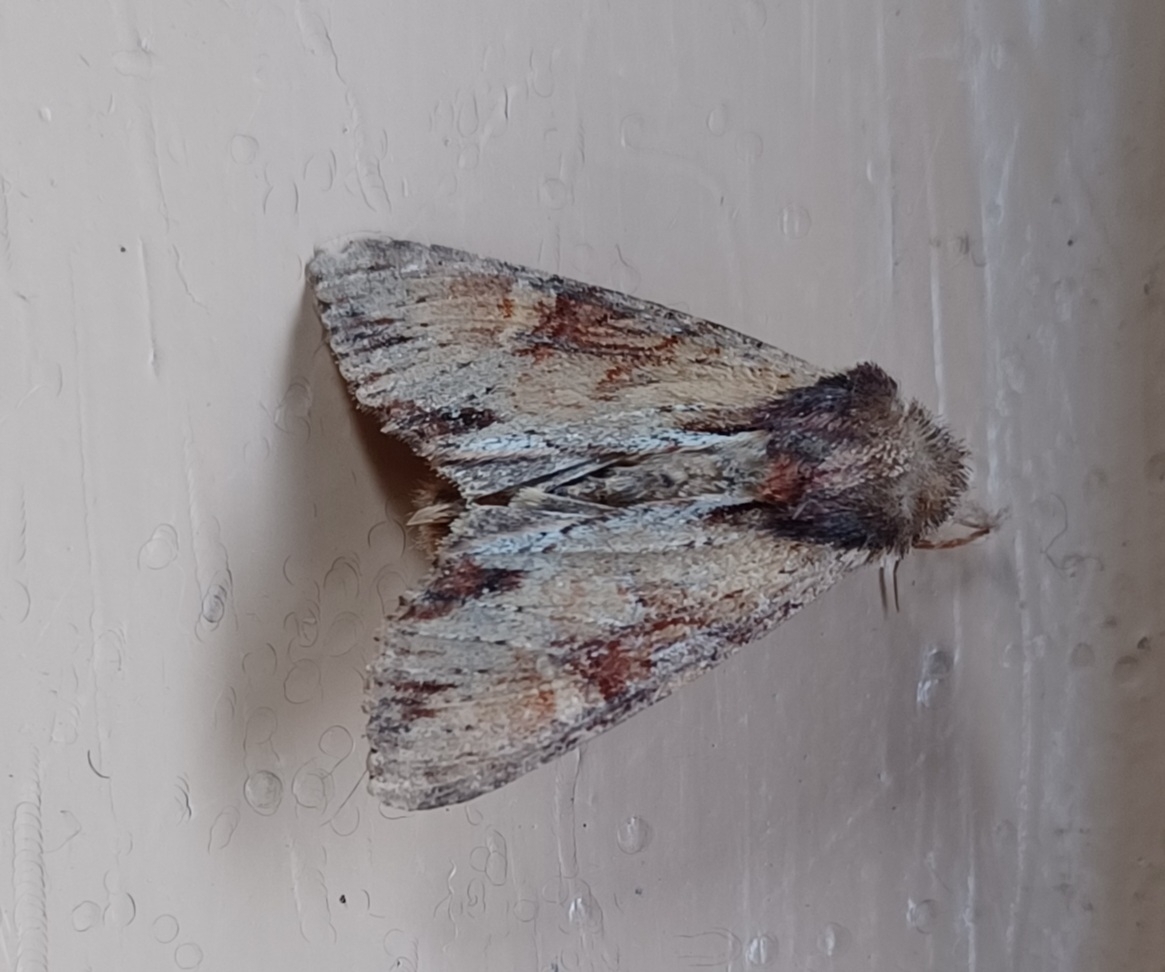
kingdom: Animalia
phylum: Arthropoda
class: Insecta
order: Lepidoptera
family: Noctuidae
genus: Apamea
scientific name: Apamea crenata
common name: Clouded-bordered brindle
